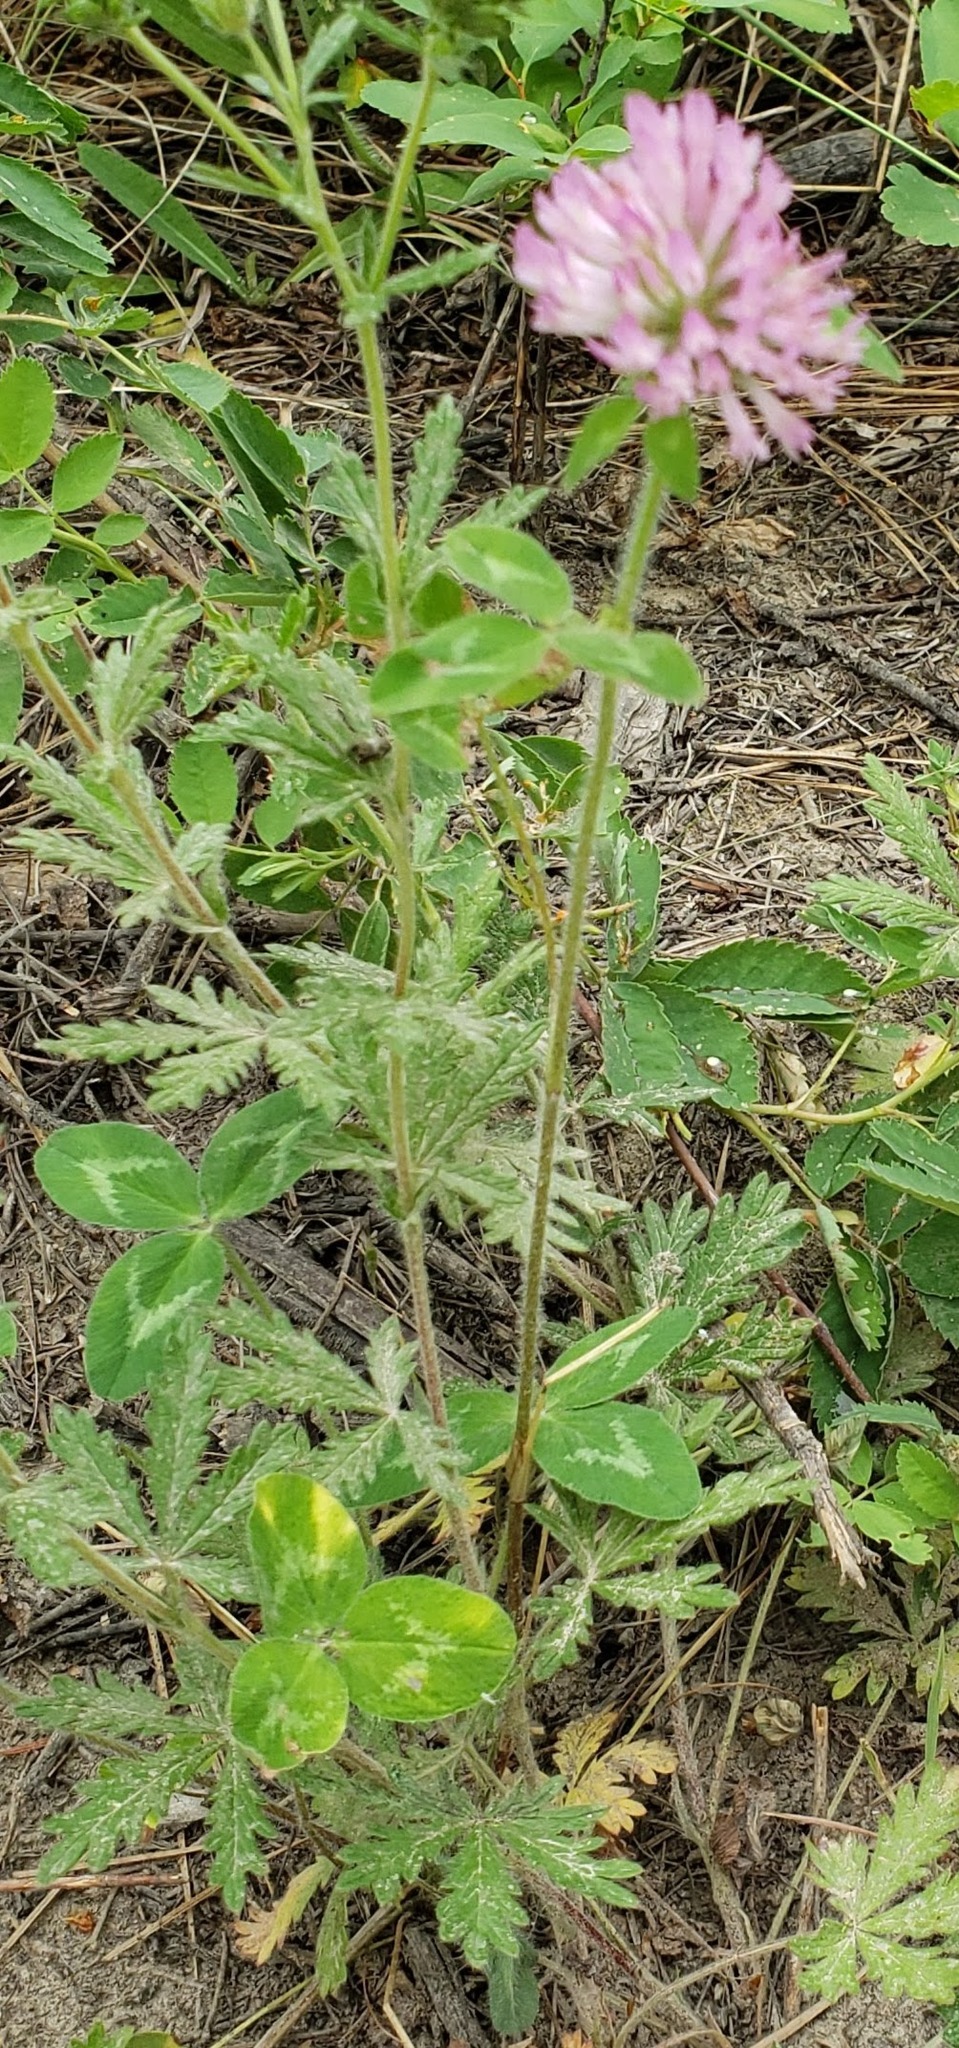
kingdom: Plantae
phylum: Tracheophyta
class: Magnoliopsida
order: Fabales
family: Fabaceae
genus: Trifolium
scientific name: Trifolium pratense
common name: Red clover
